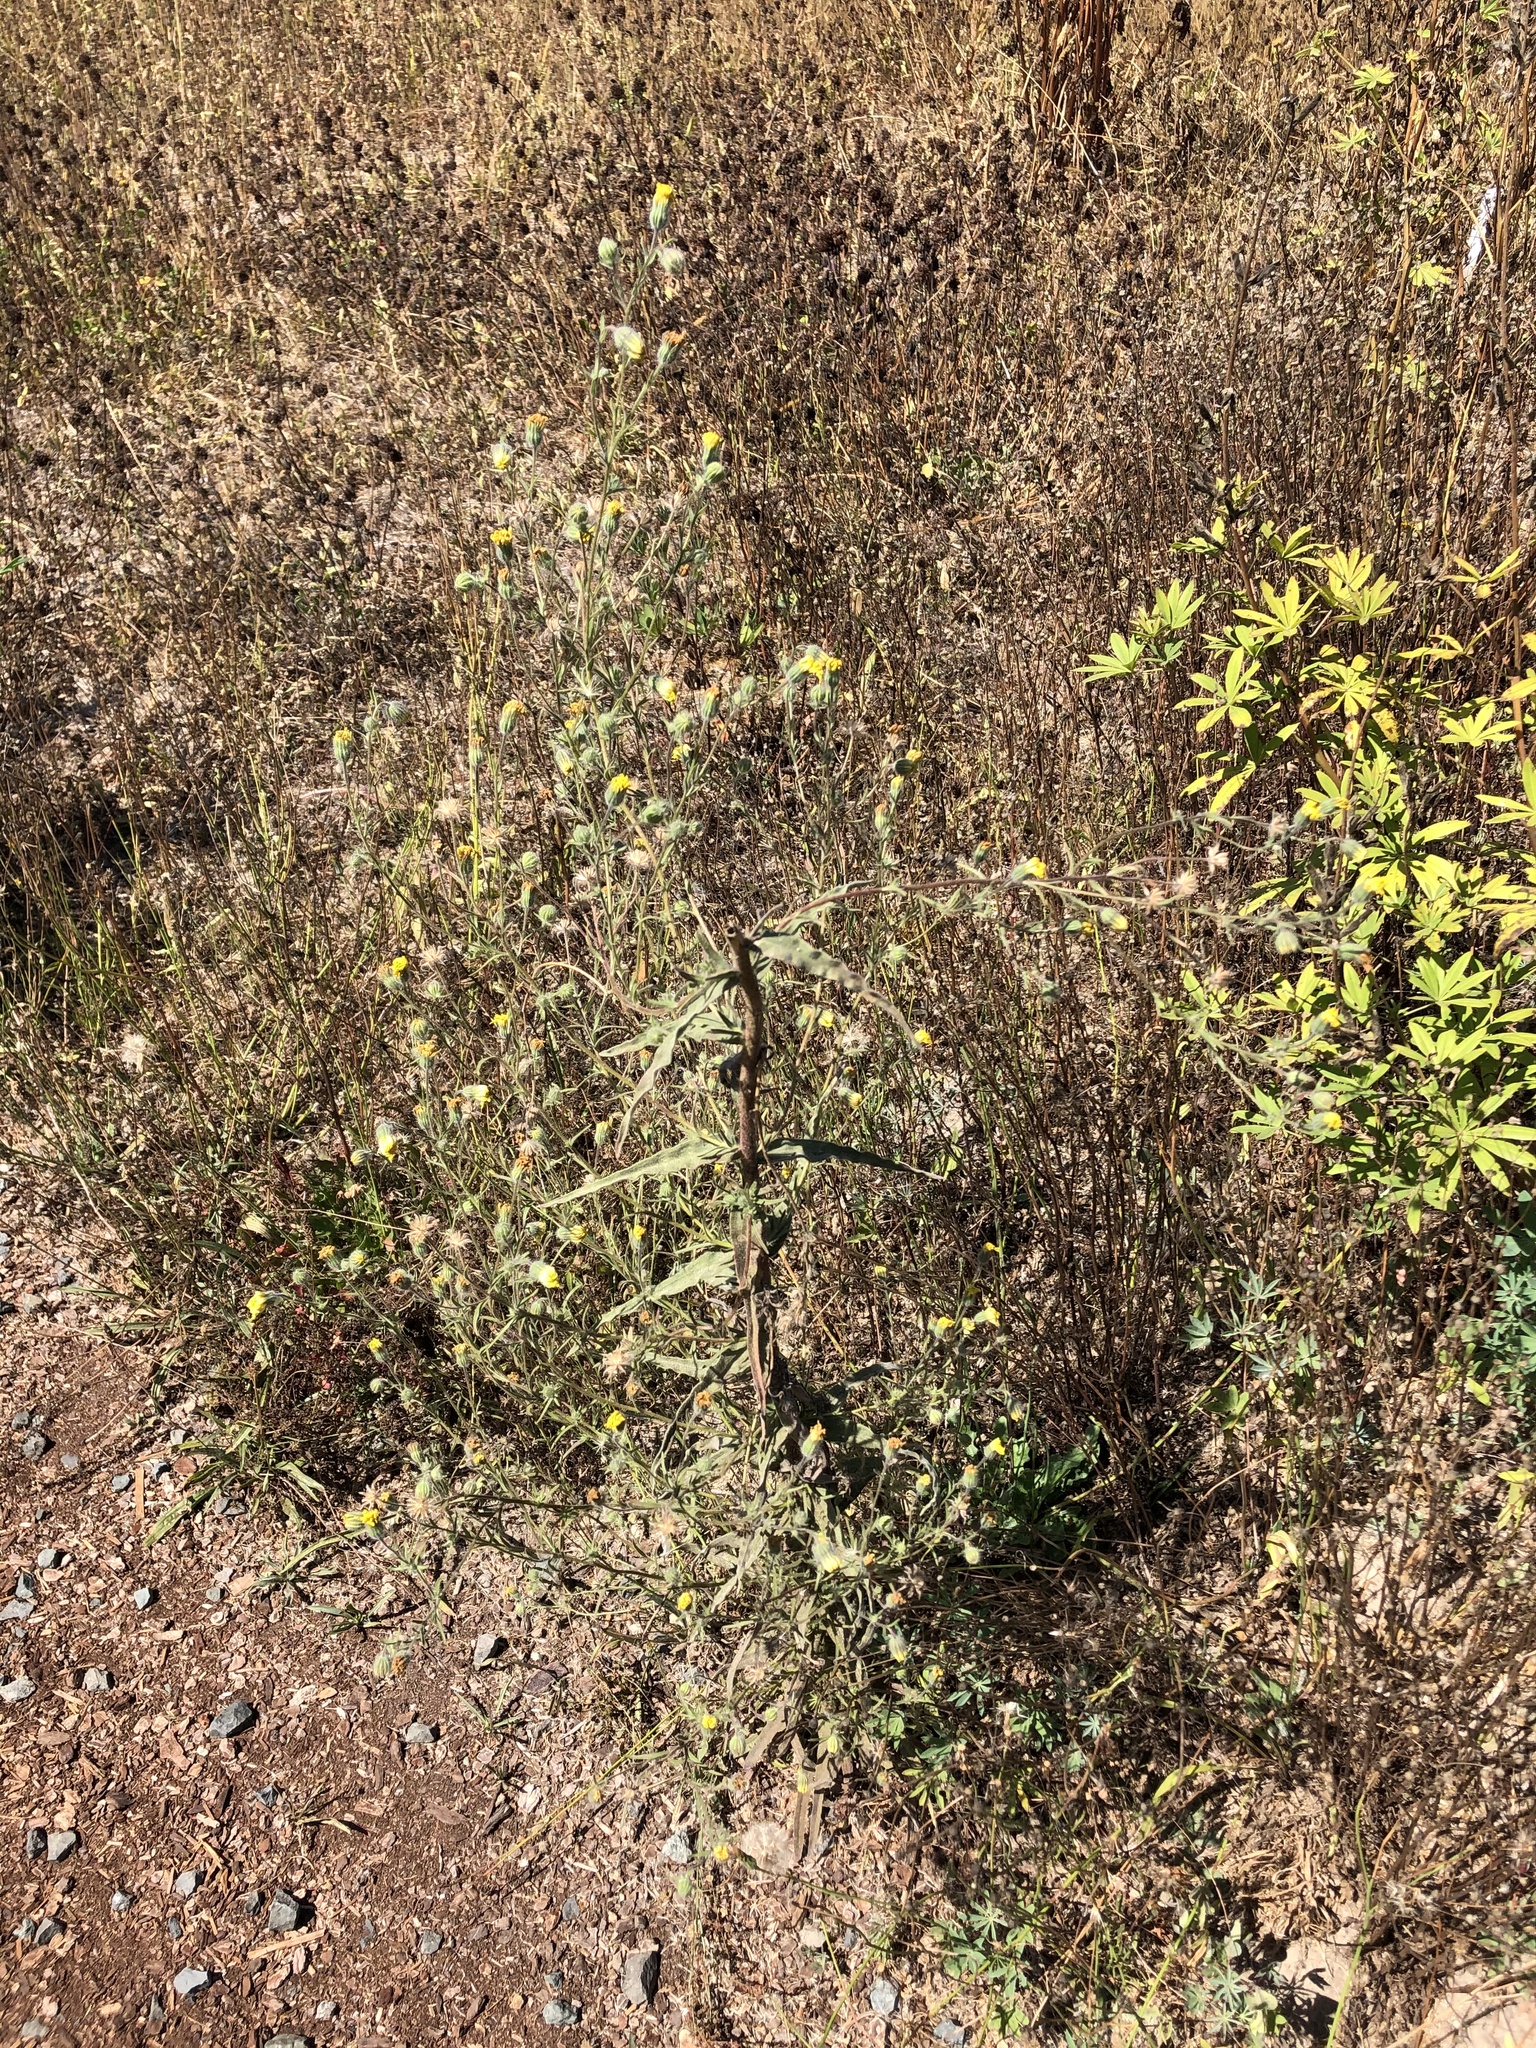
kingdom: Plantae
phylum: Tracheophyta
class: Magnoliopsida
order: Asterales
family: Asteraceae
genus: Madia
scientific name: Madia elegans
